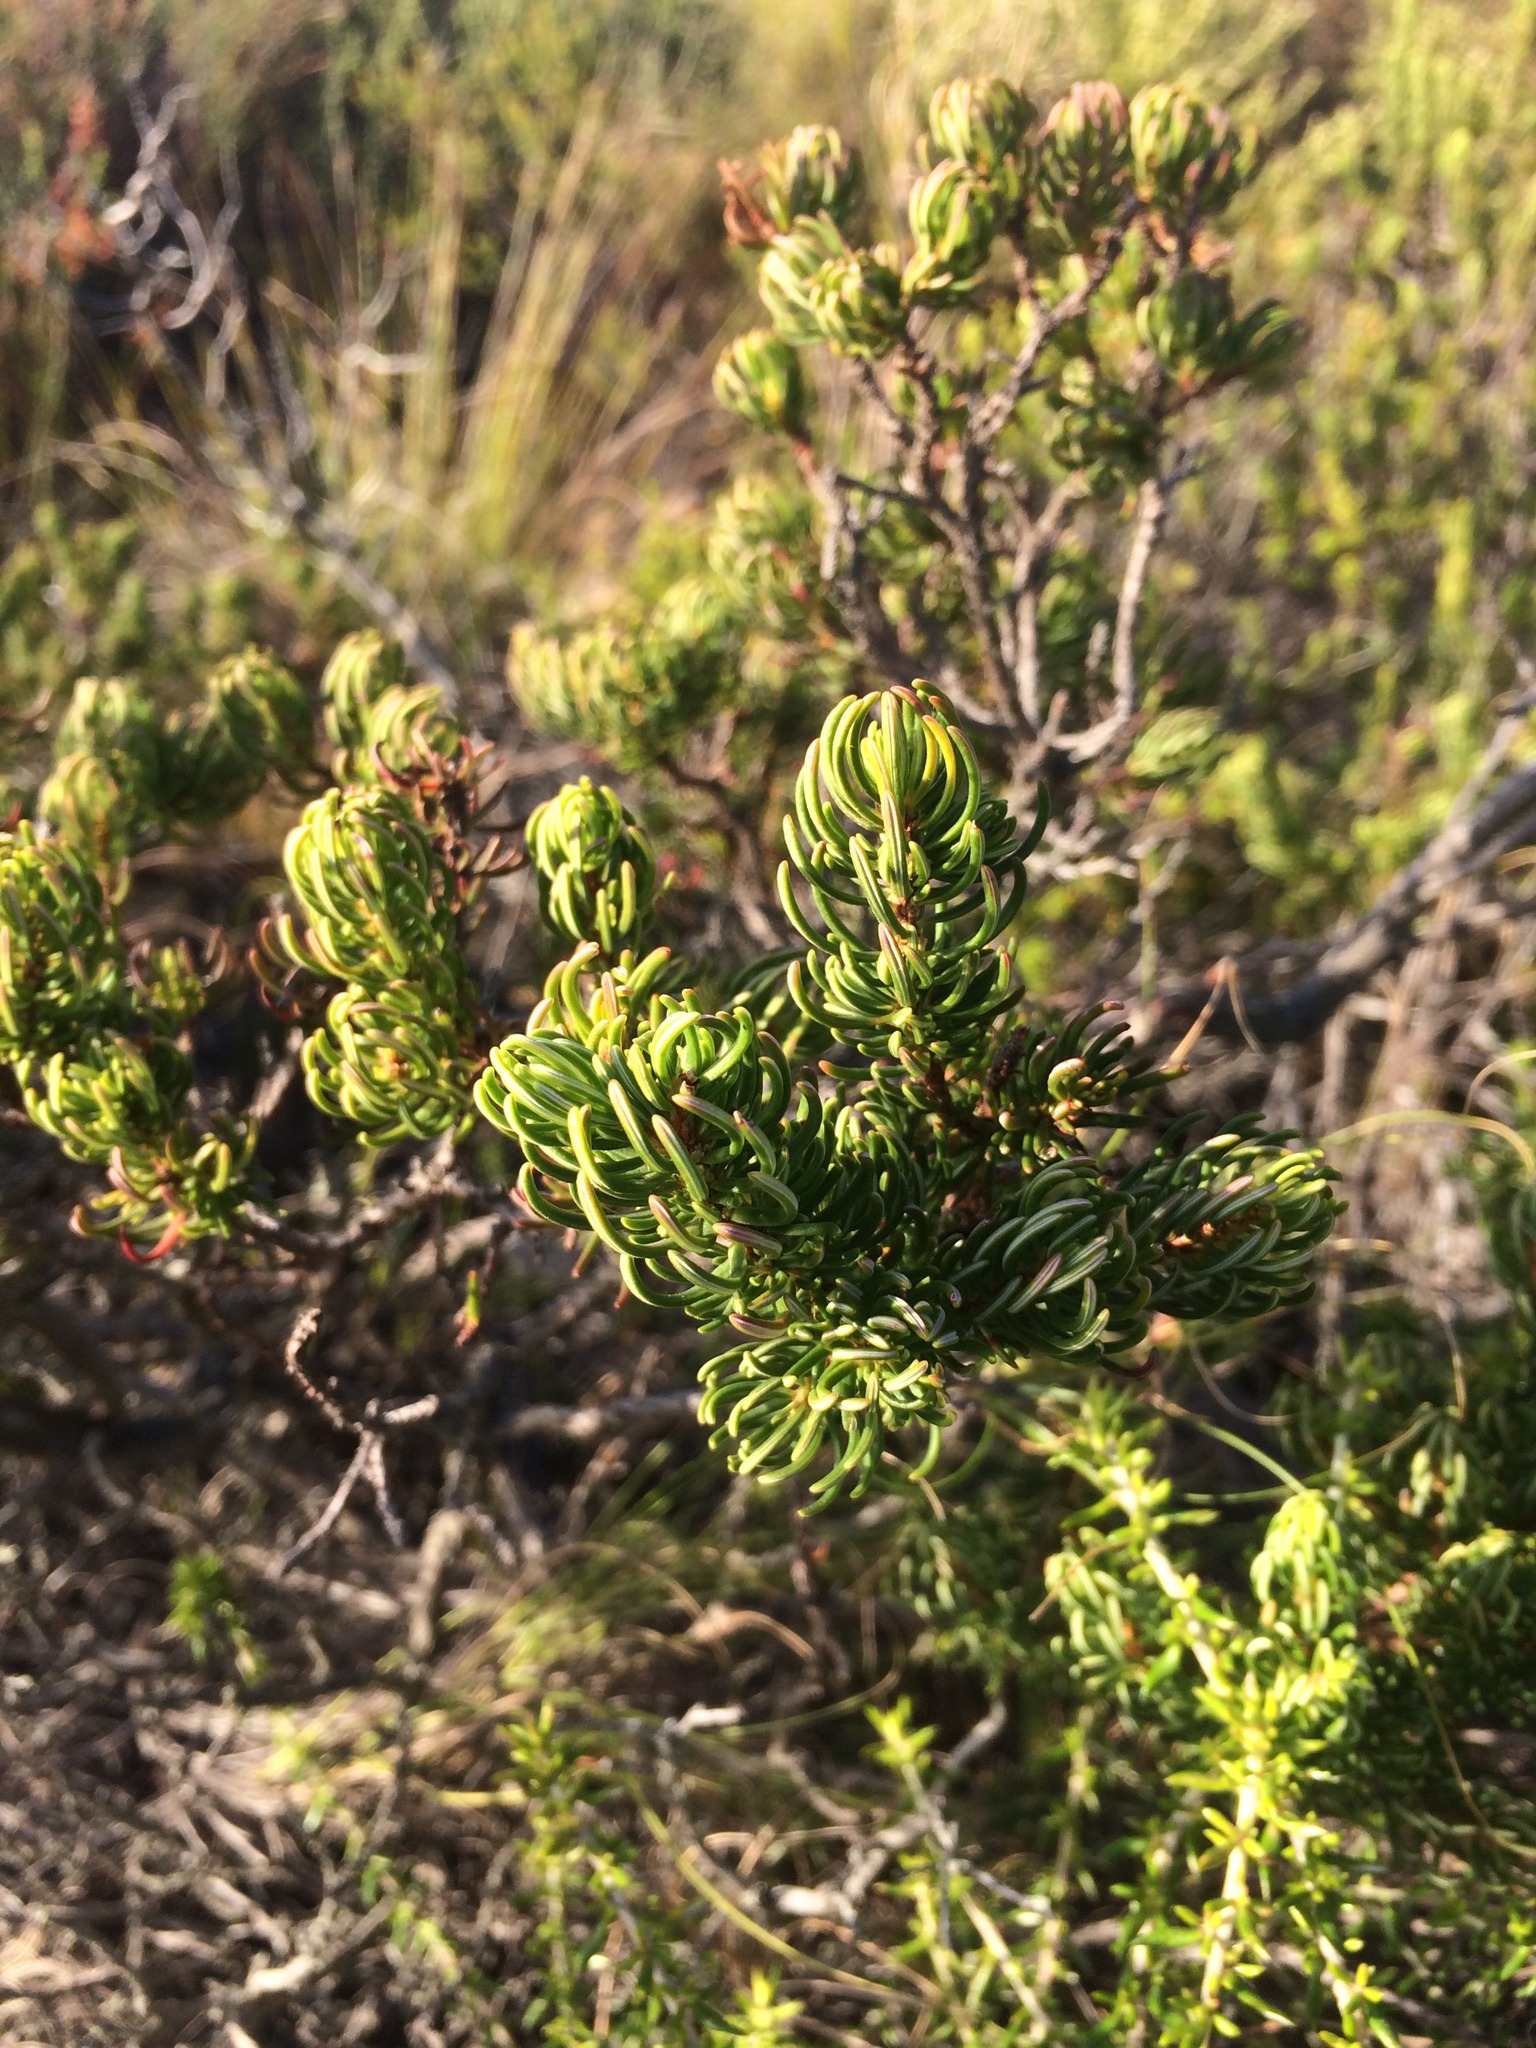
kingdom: Plantae
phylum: Tracheophyta
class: Magnoliopsida
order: Ericales
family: Ericaceae
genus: Erica
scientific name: Erica plukenetii
